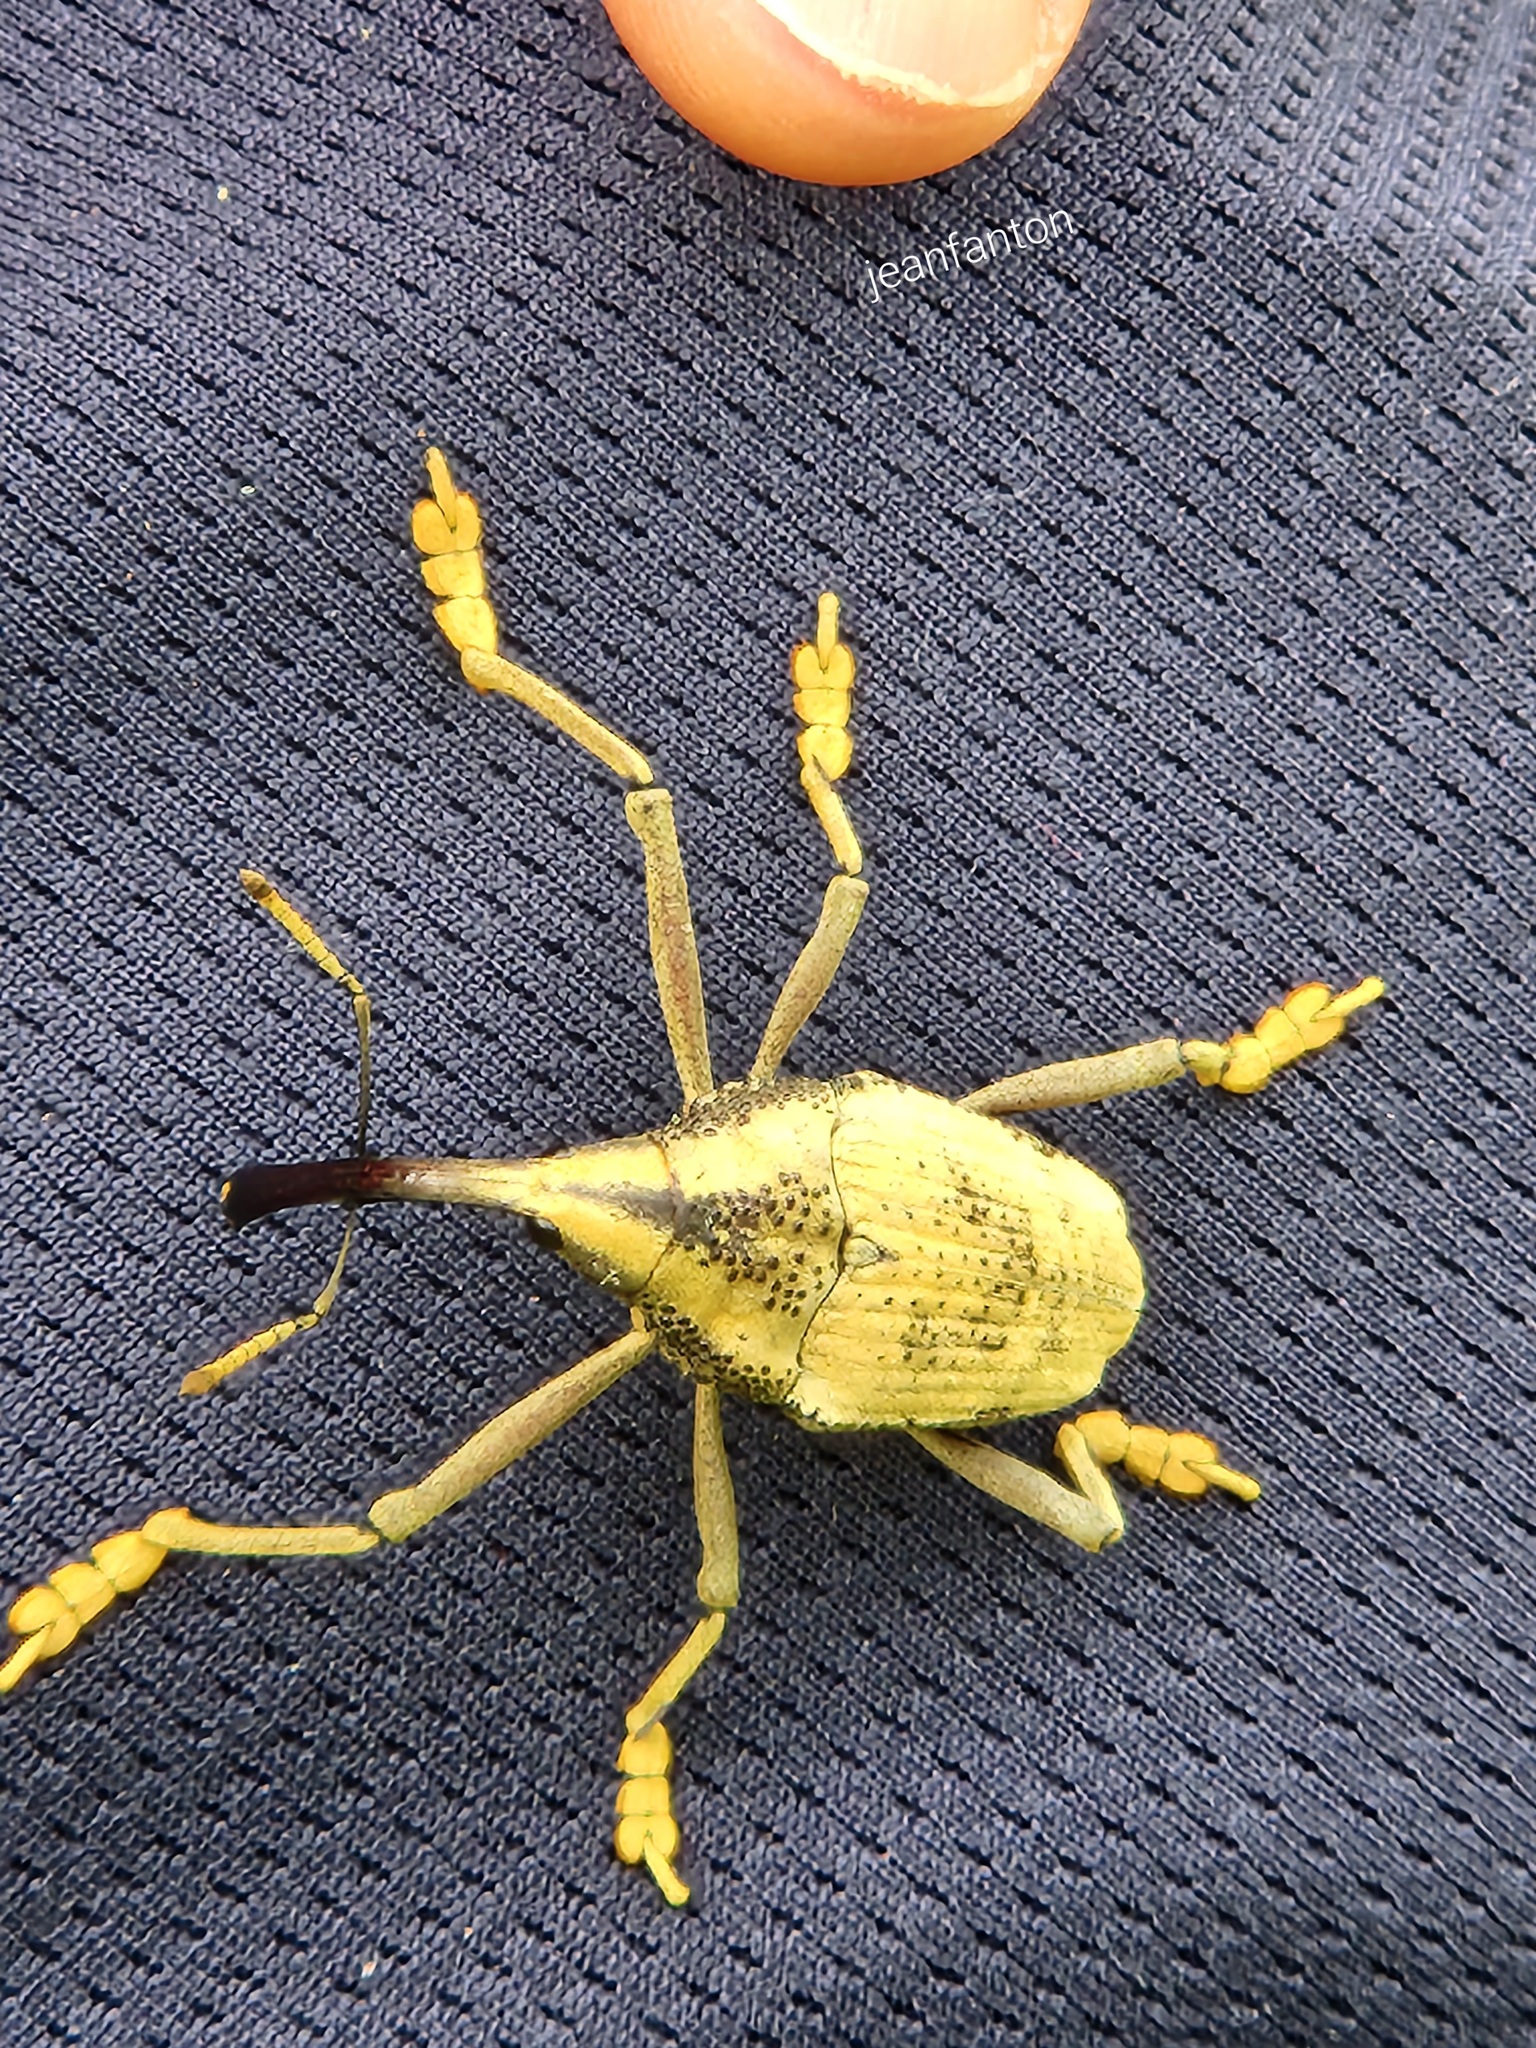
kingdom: Animalia
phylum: Arthropoda
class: Insecta
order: Coleoptera
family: Curculionidae
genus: Rhinastus
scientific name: Rhinastus latisternus
